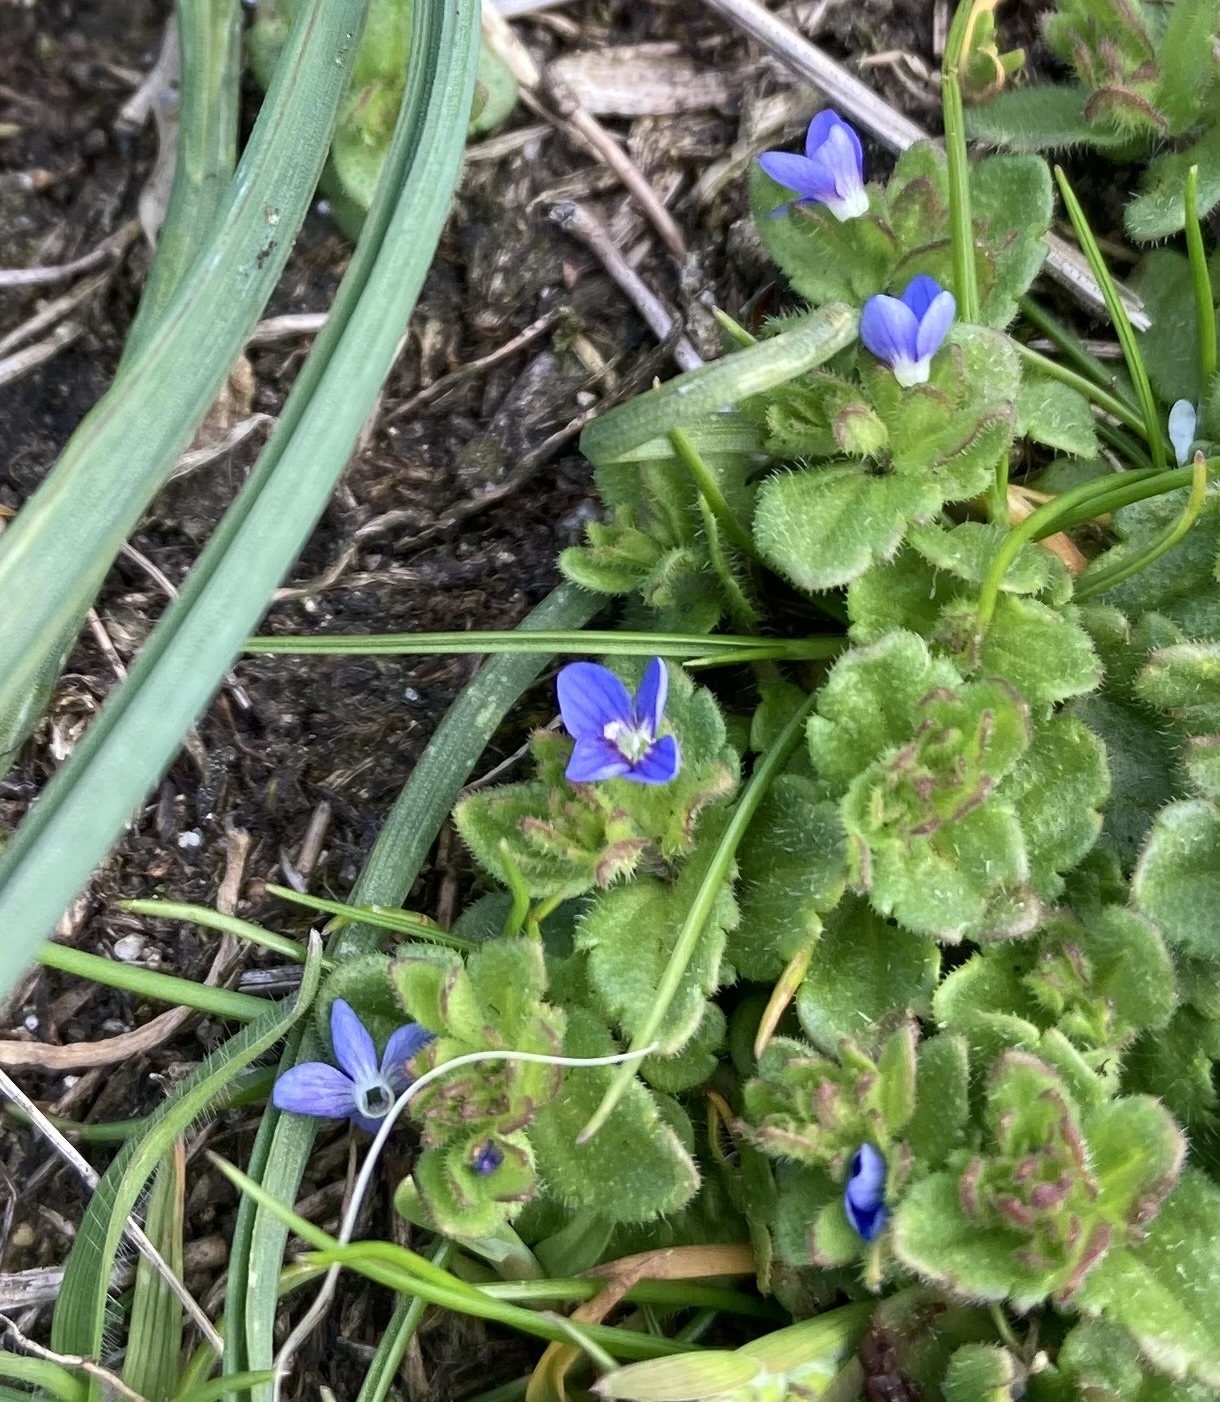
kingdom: Plantae
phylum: Tracheophyta
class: Magnoliopsida
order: Lamiales
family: Plantaginaceae
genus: Veronica
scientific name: Veronica arvensis
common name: Corn speedwell
